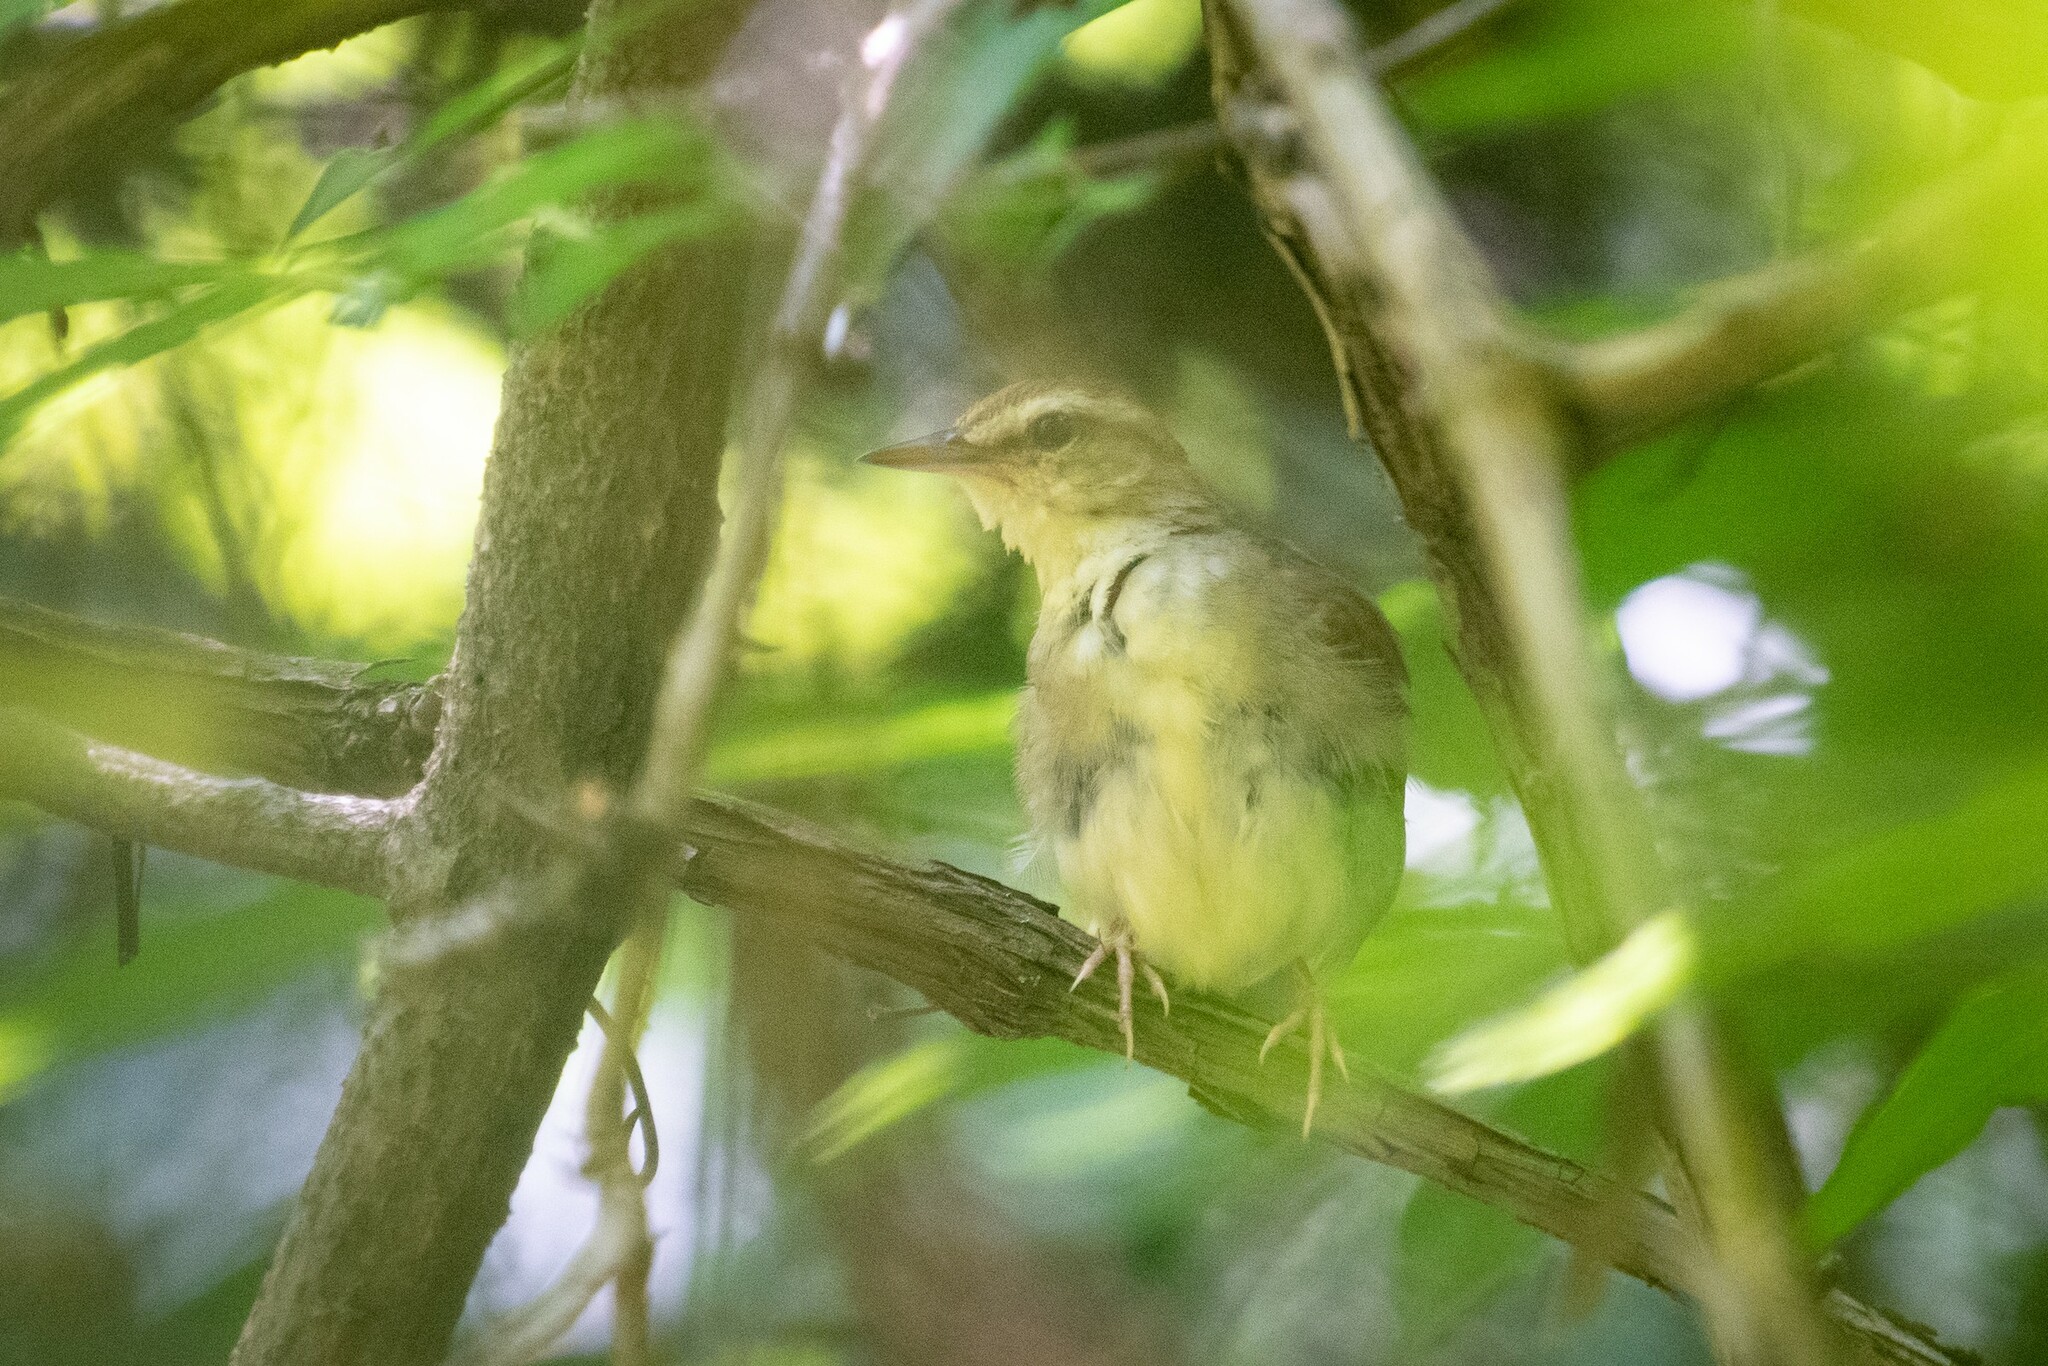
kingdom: Animalia
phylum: Chordata
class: Aves
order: Passeriformes
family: Parulidae
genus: Limnothlypis
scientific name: Limnothlypis swainsonii
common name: Swainson's warbler
